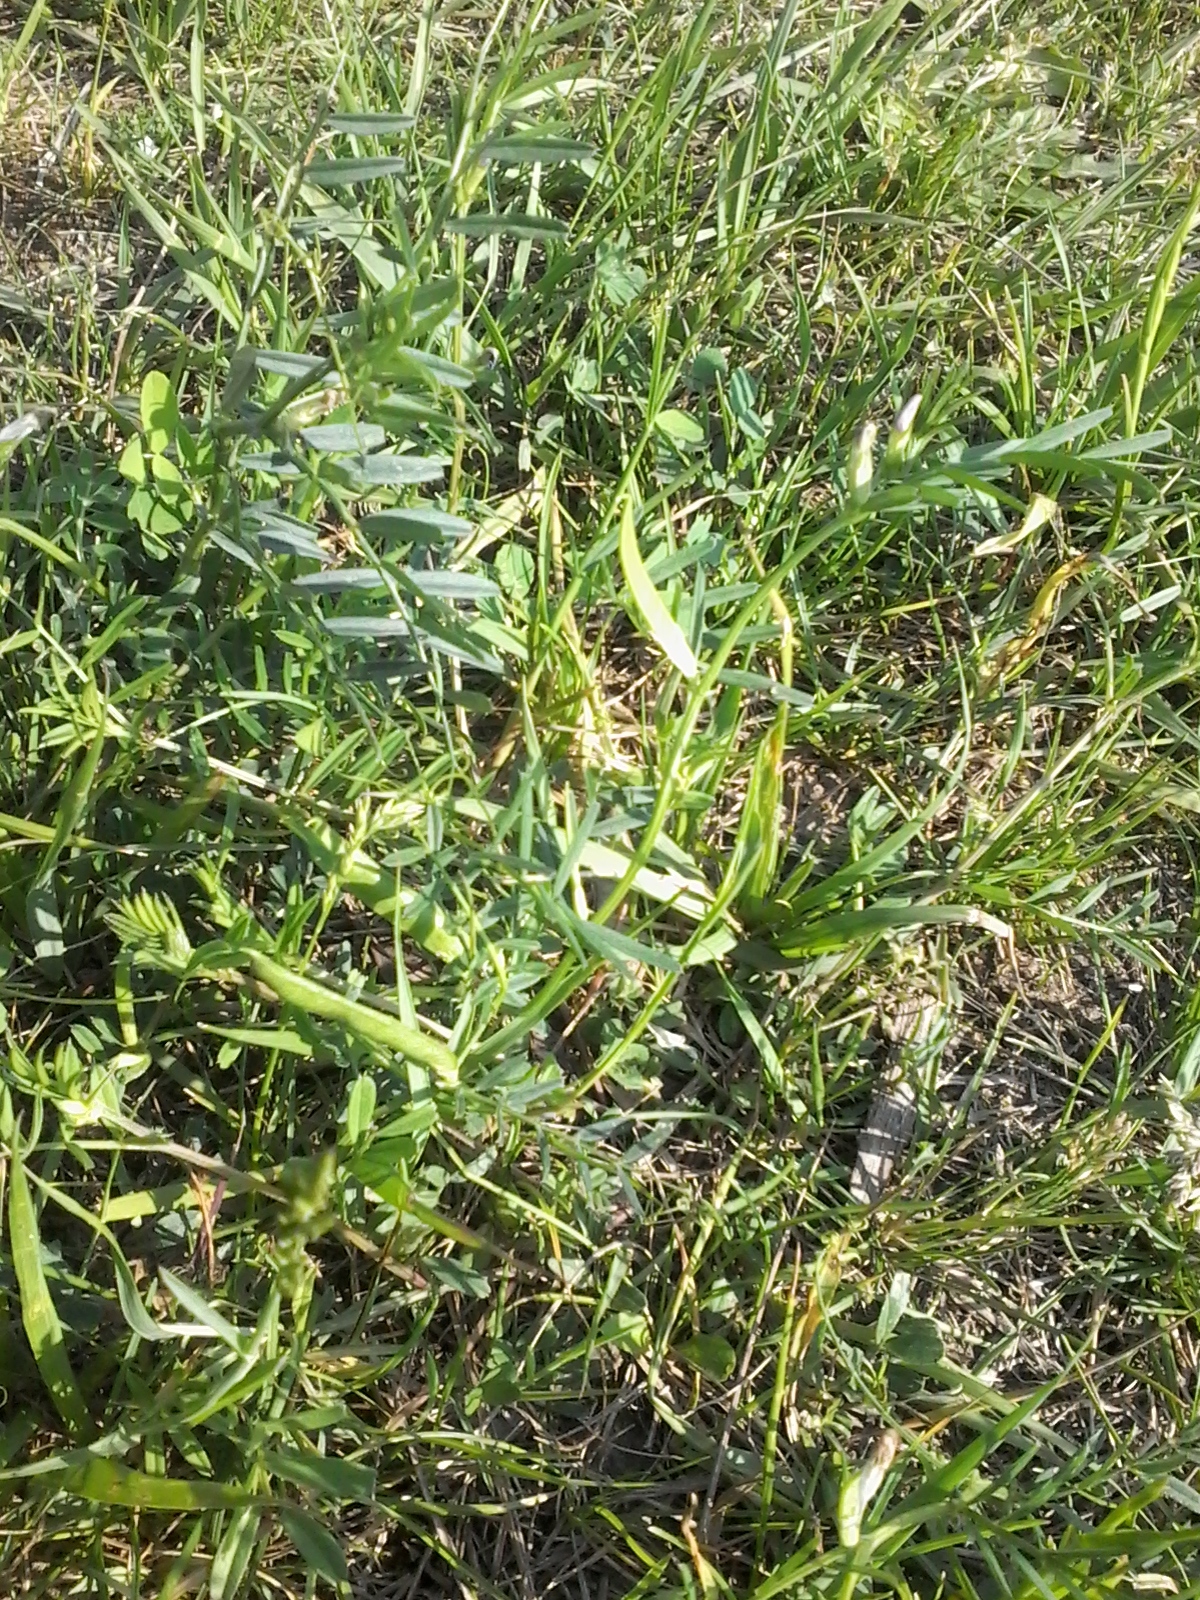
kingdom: Plantae
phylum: Tracheophyta
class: Magnoliopsida
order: Fabales
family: Fabaceae
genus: Vicia
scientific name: Vicia sativa
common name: Garden vetch
